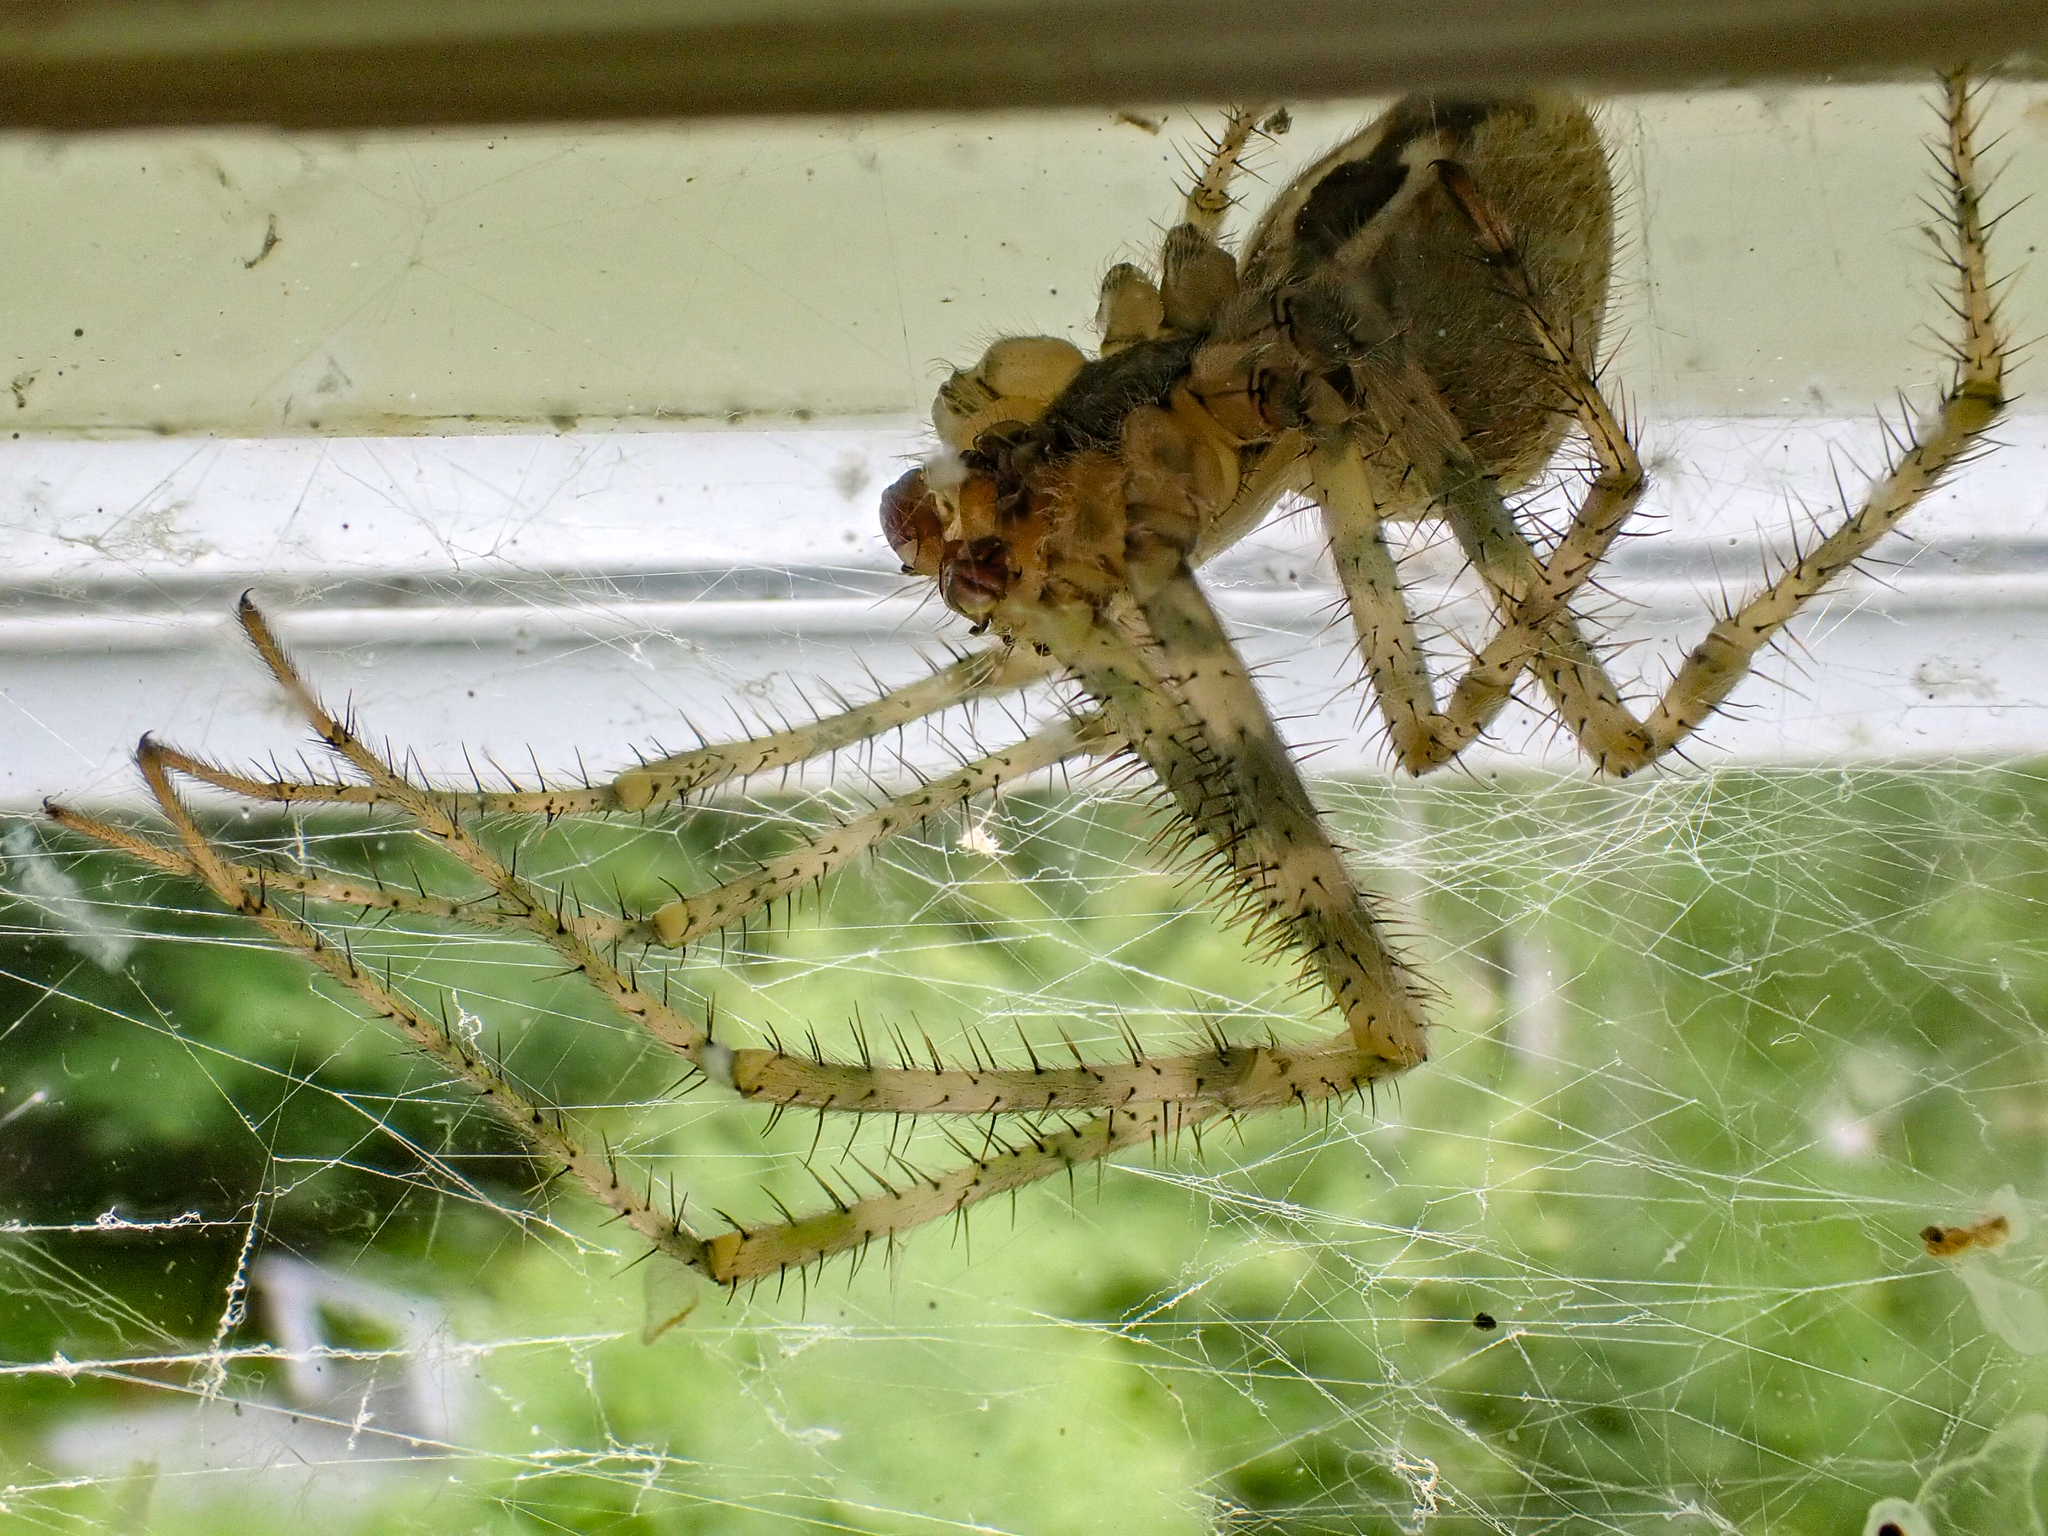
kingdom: Animalia
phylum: Arthropoda
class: Arachnida
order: Araneae
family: Araneidae
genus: Araneus
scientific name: Araneus cavaticus
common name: Barn orbweaver
